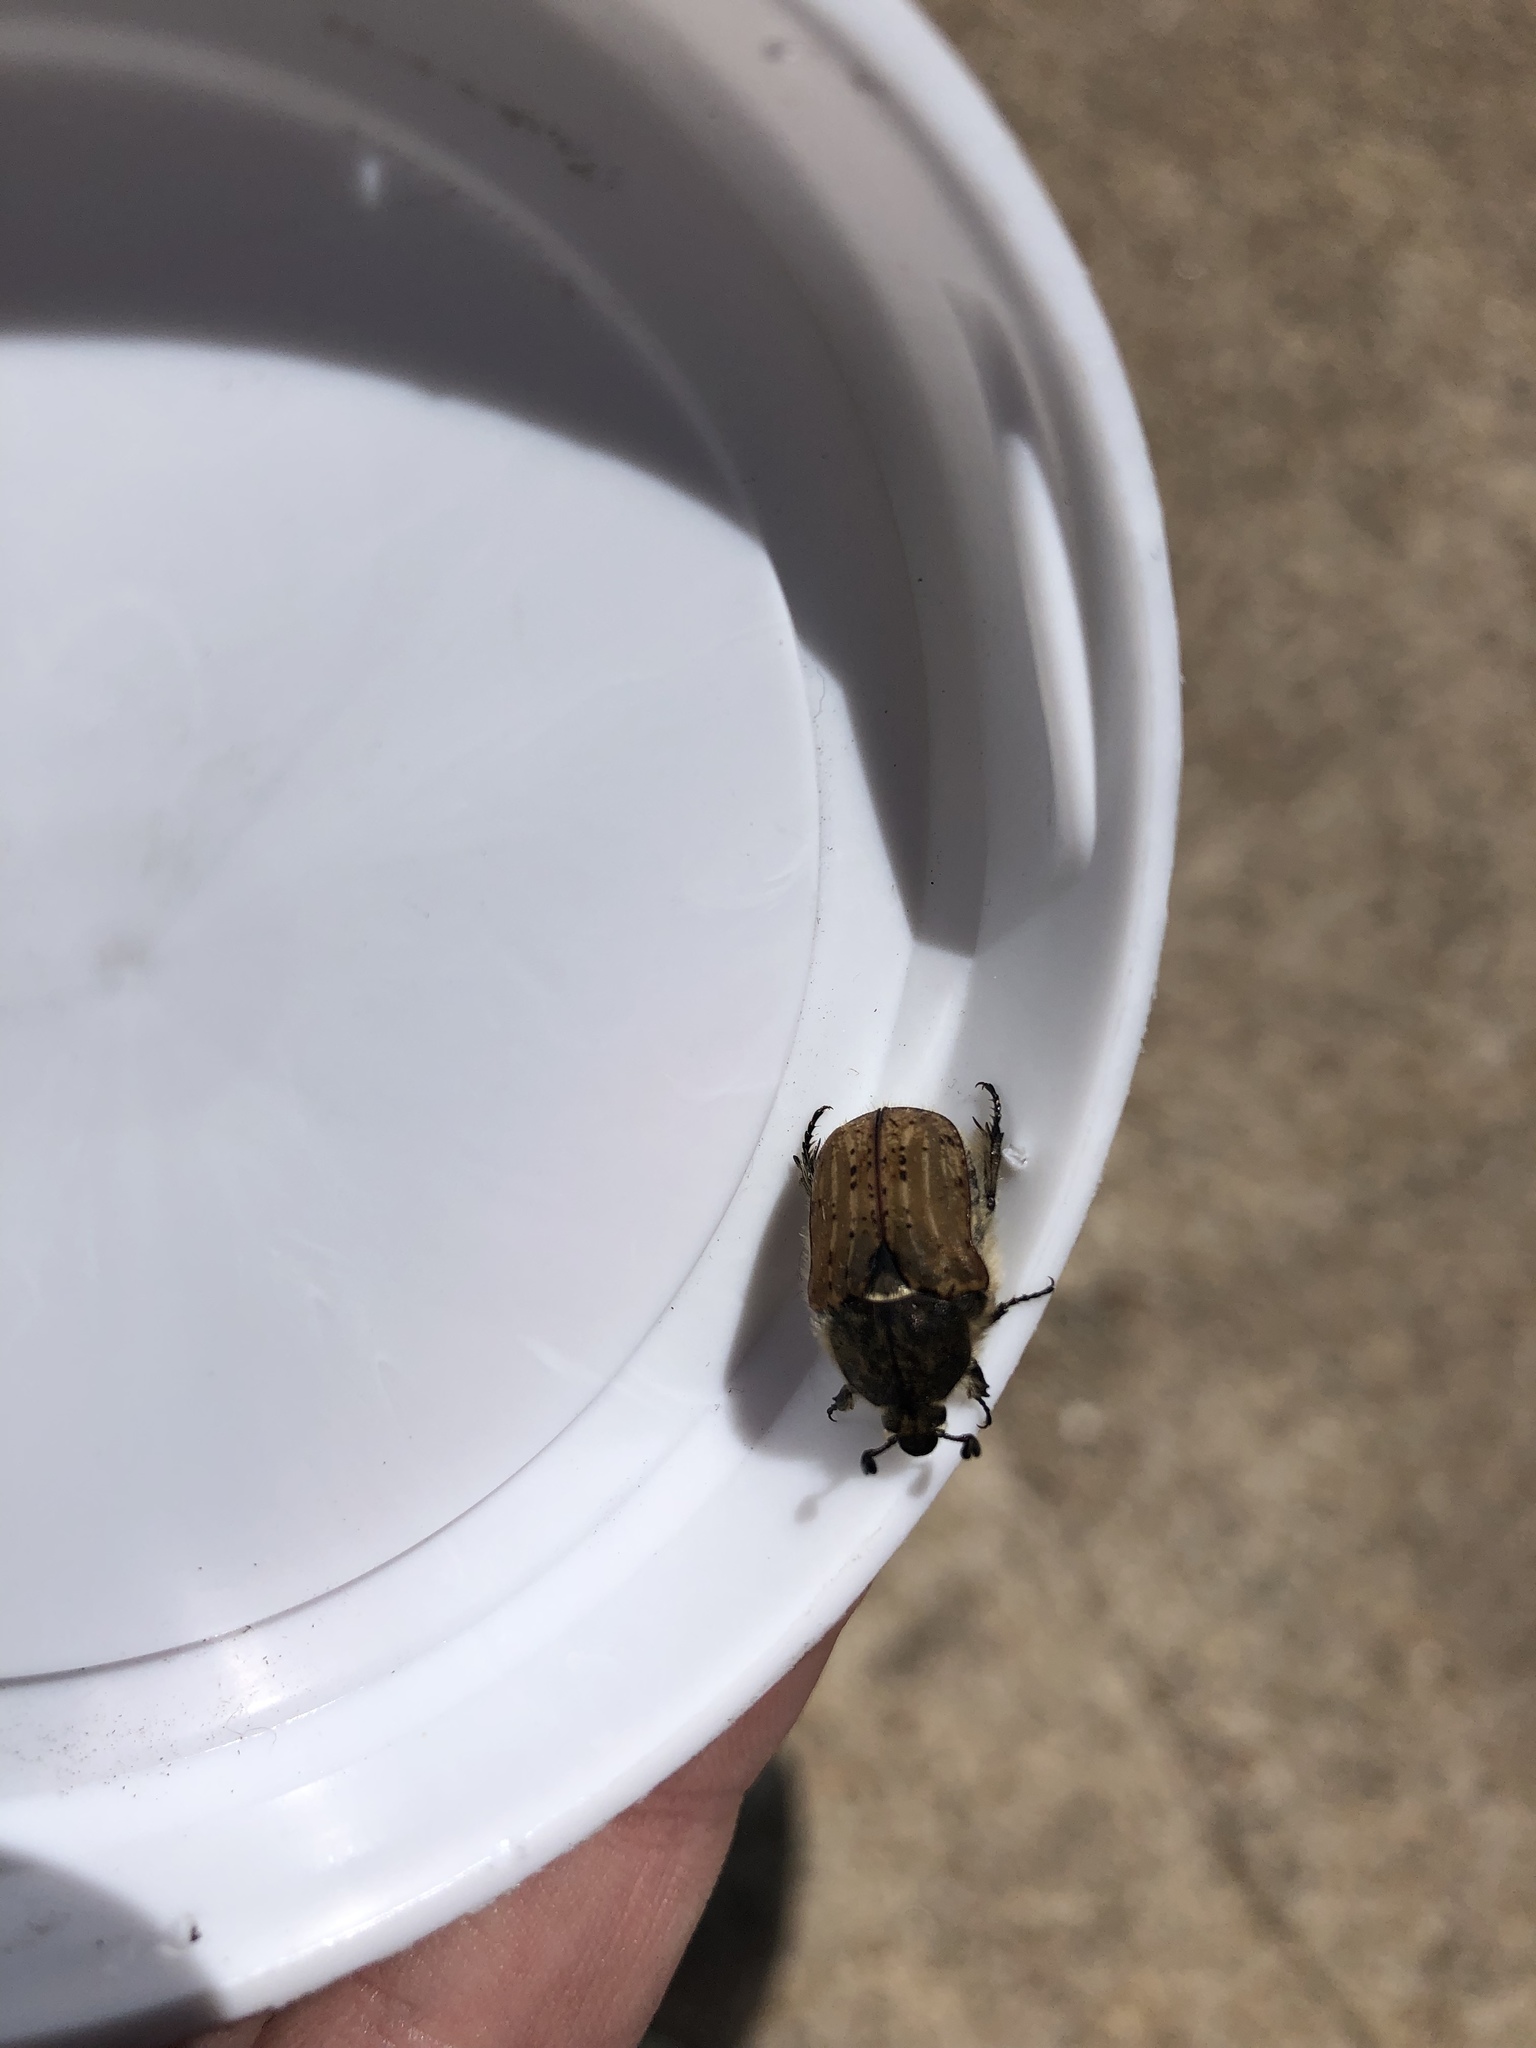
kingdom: Animalia
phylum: Arthropoda
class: Insecta
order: Coleoptera
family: Scarabaeidae
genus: Euphoria
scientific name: Euphoria inda
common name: Bumble flower beetle
